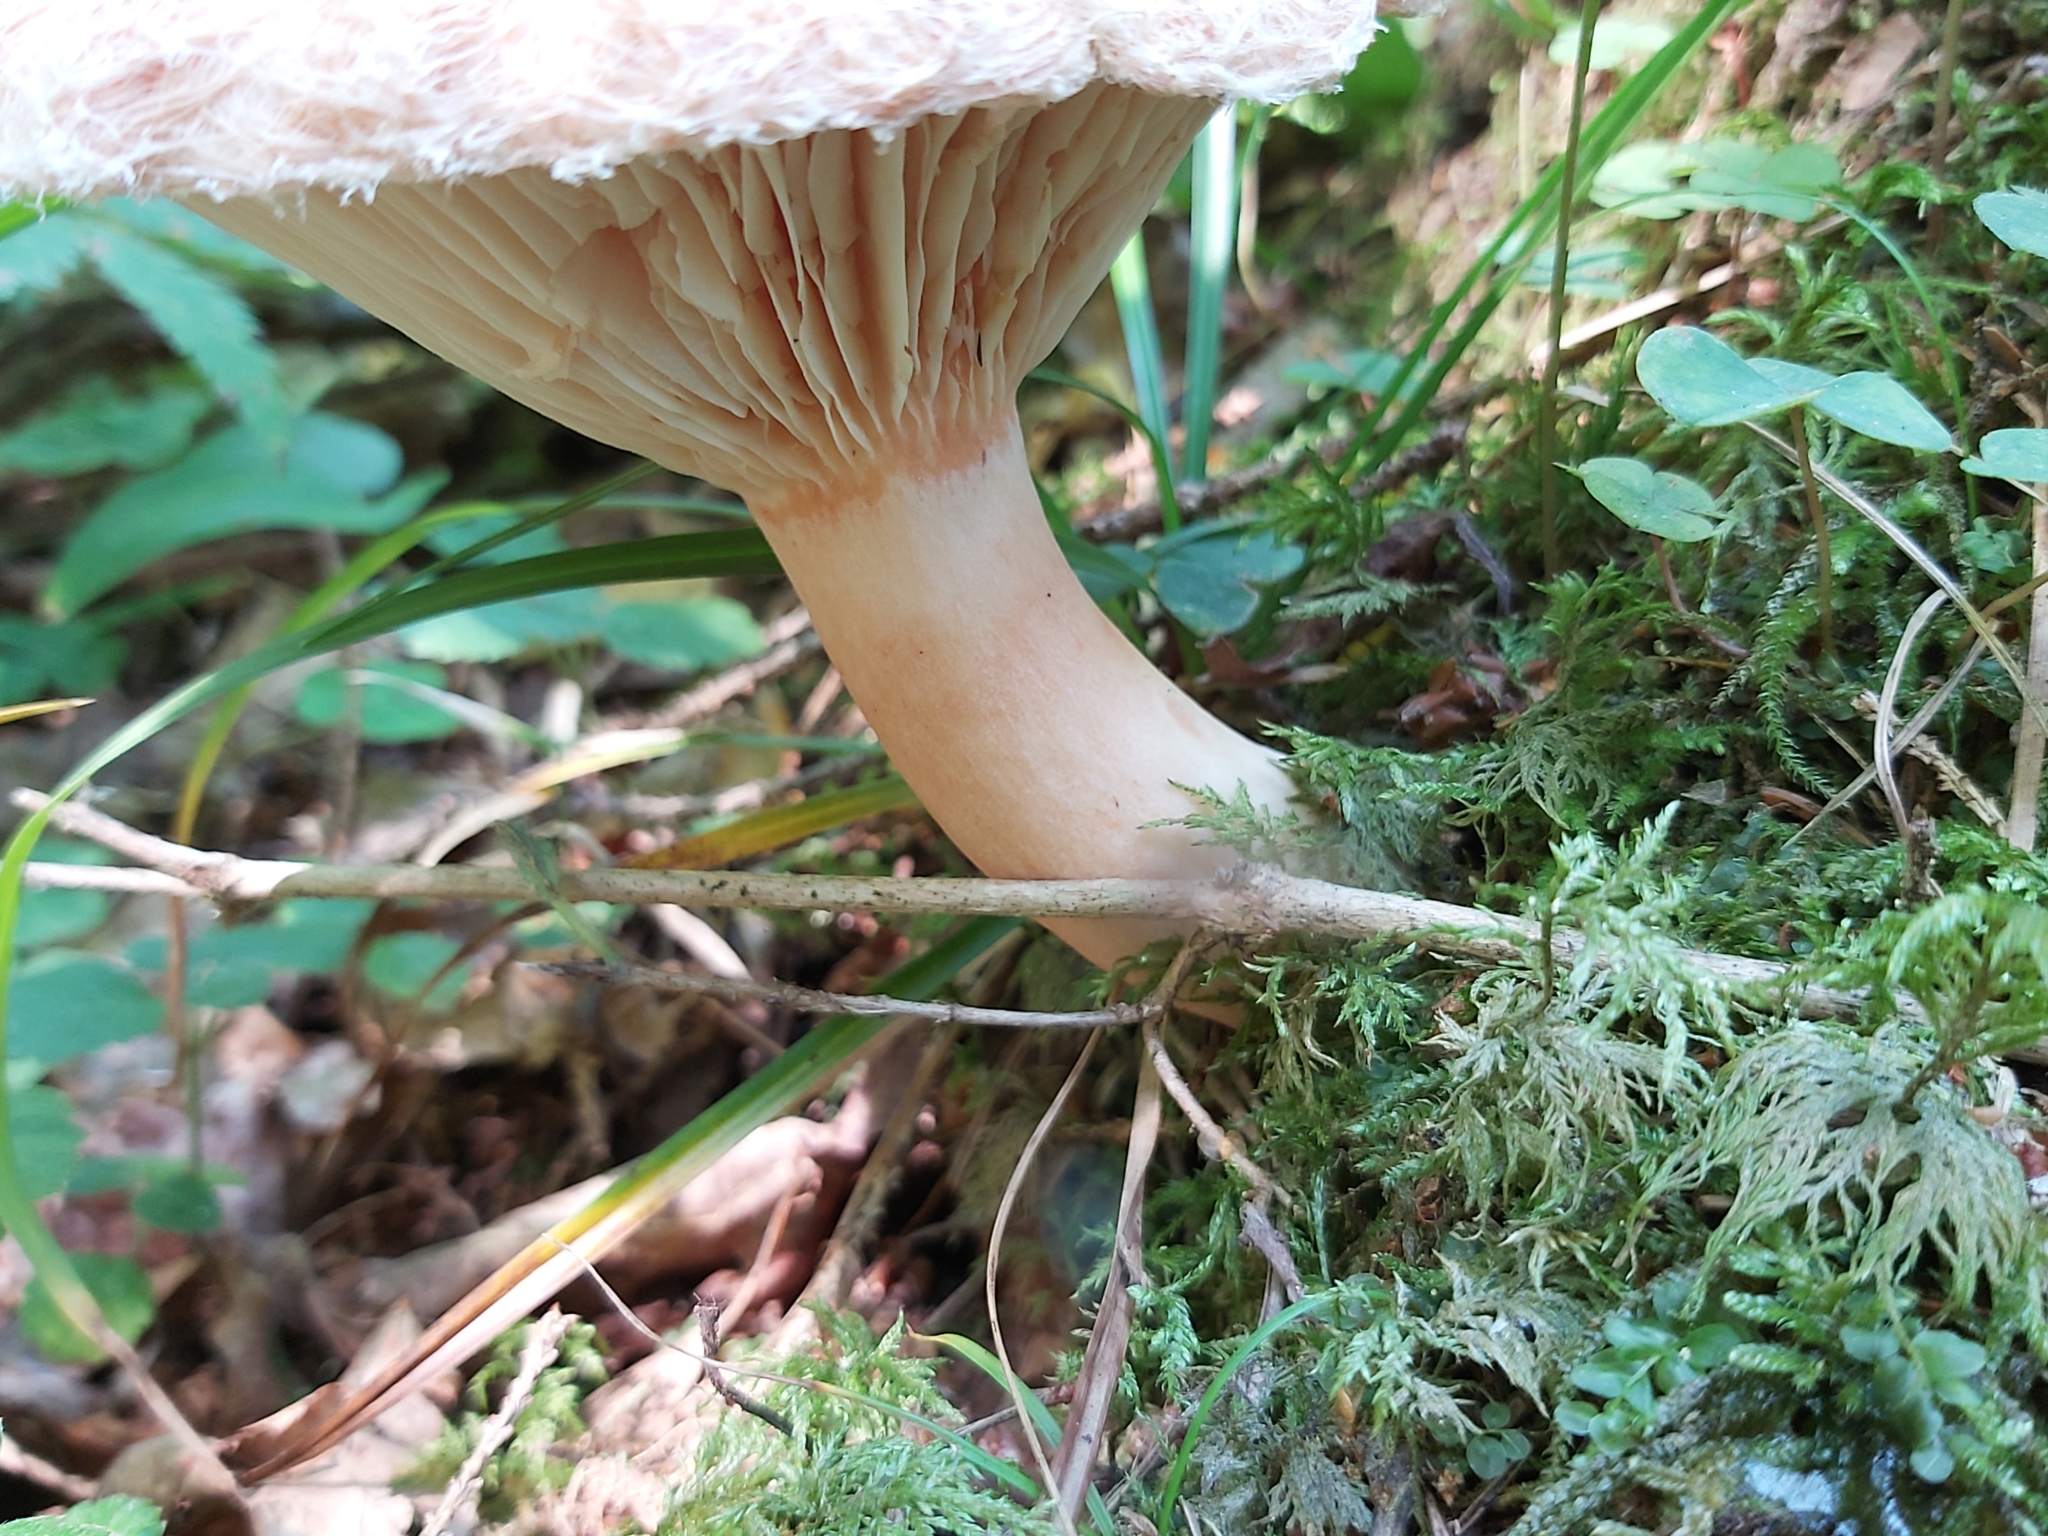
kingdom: Fungi
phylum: Basidiomycota
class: Agaricomycetes
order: Russulales
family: Russulaceae
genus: Lactarius
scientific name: Lactarius torminosus
